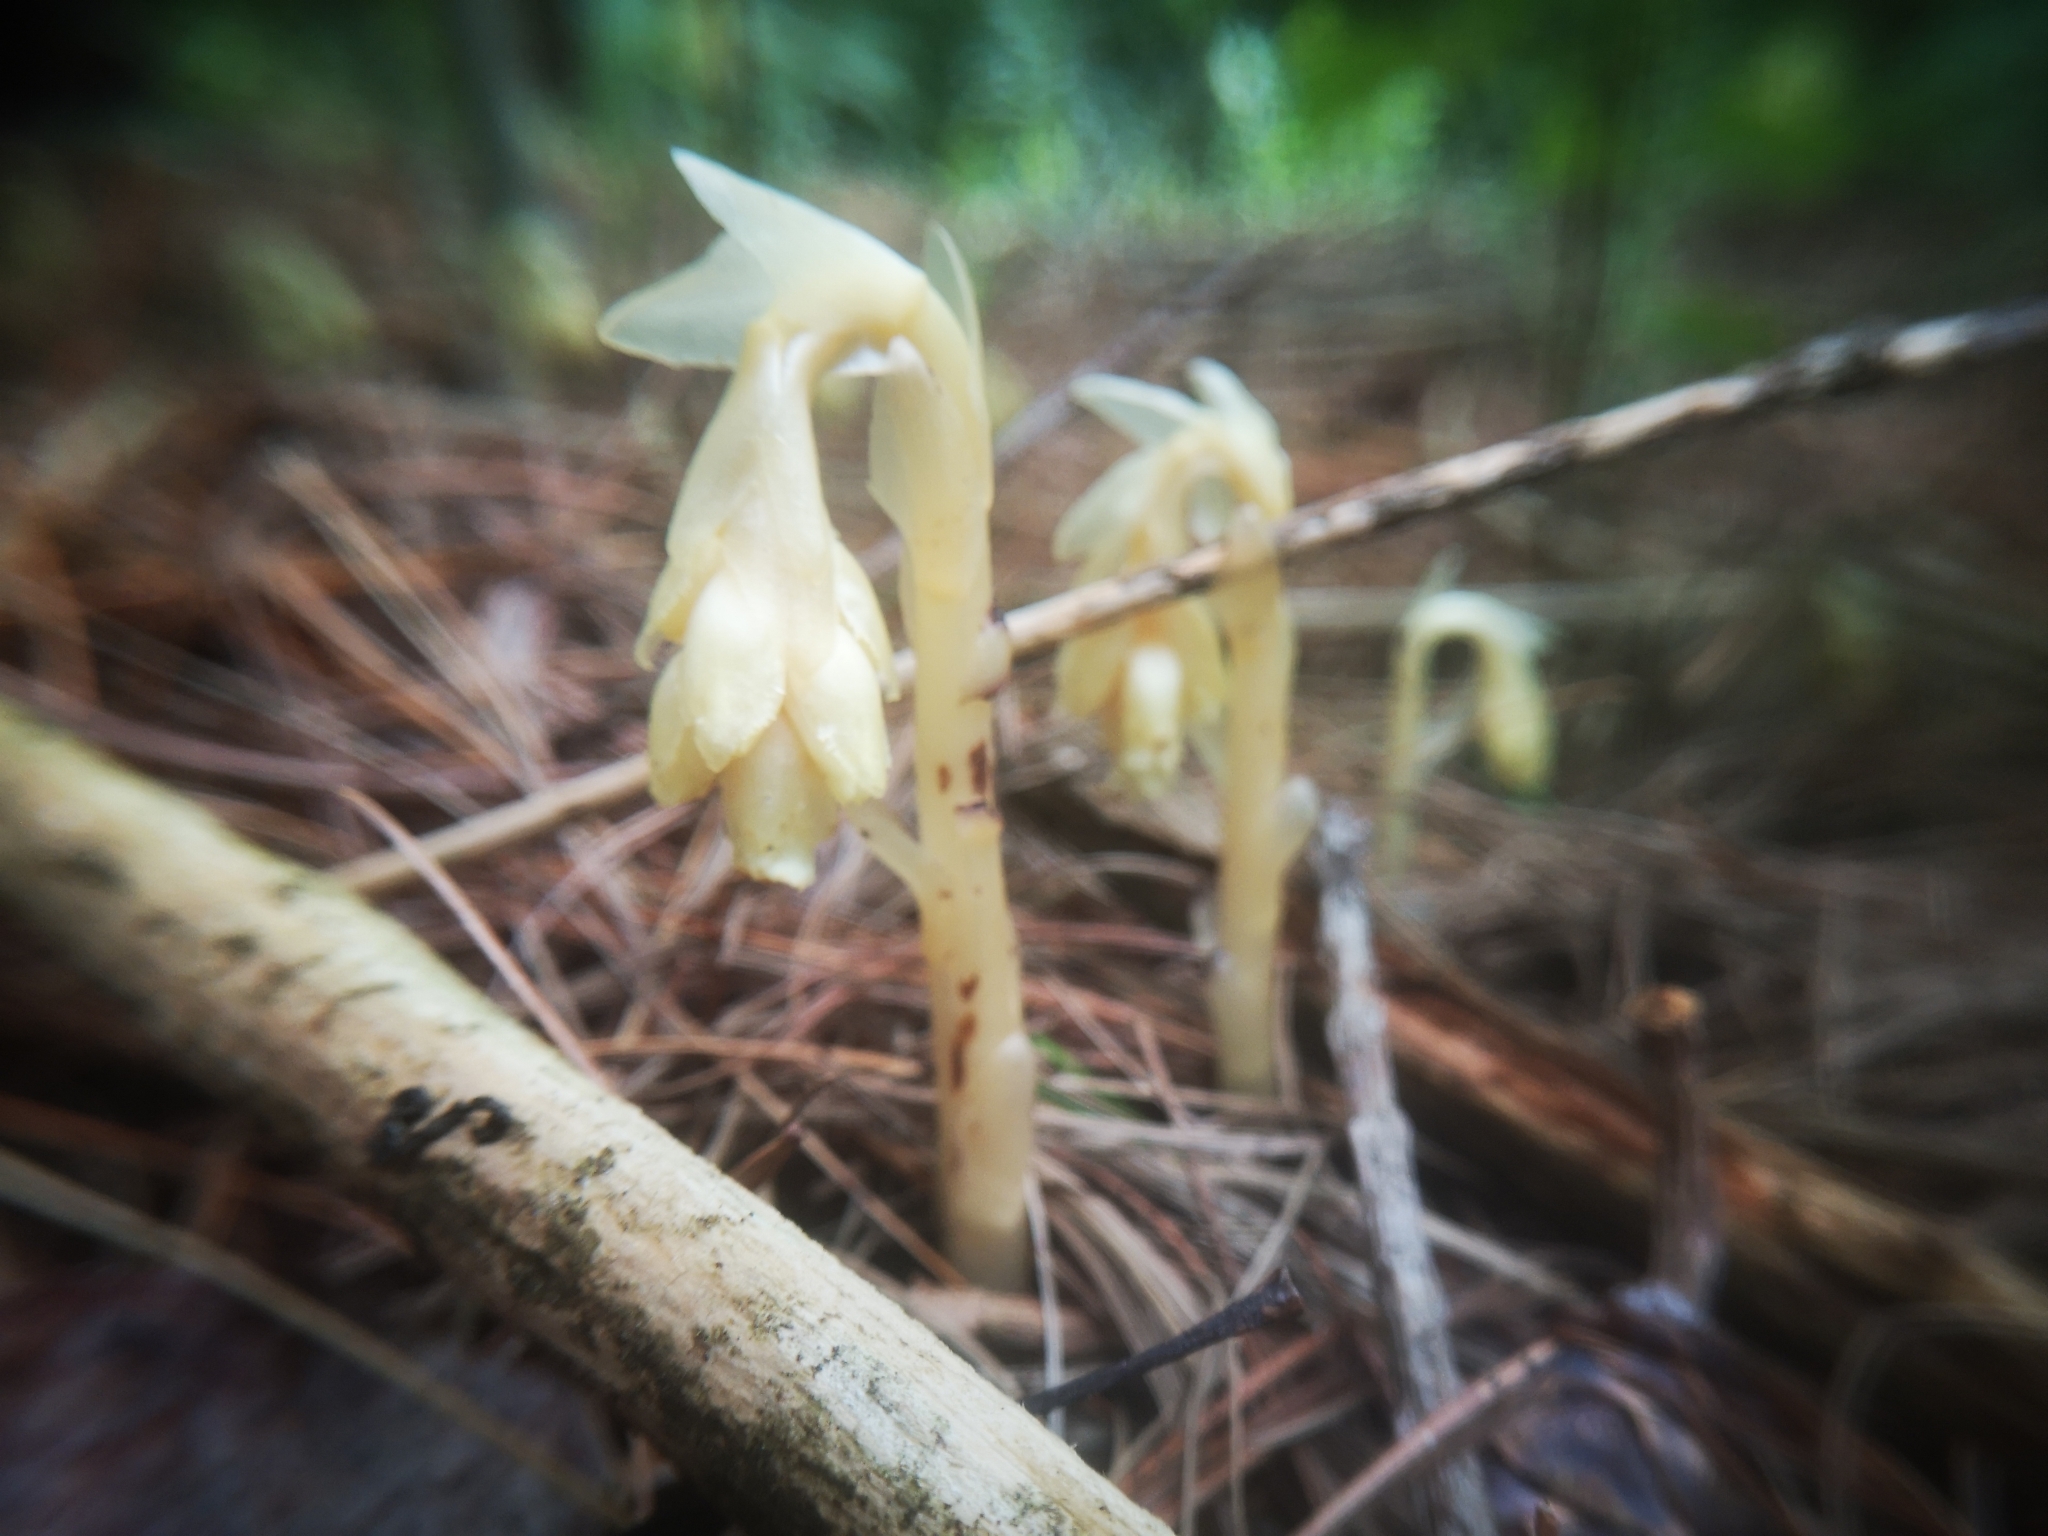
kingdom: Plantae
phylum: Tracheophyta
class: Magnoliopsida
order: Ericales
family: Ericaceae
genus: Hypopitys
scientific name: Hypopitys monotropa
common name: Yellow bird's-nest
